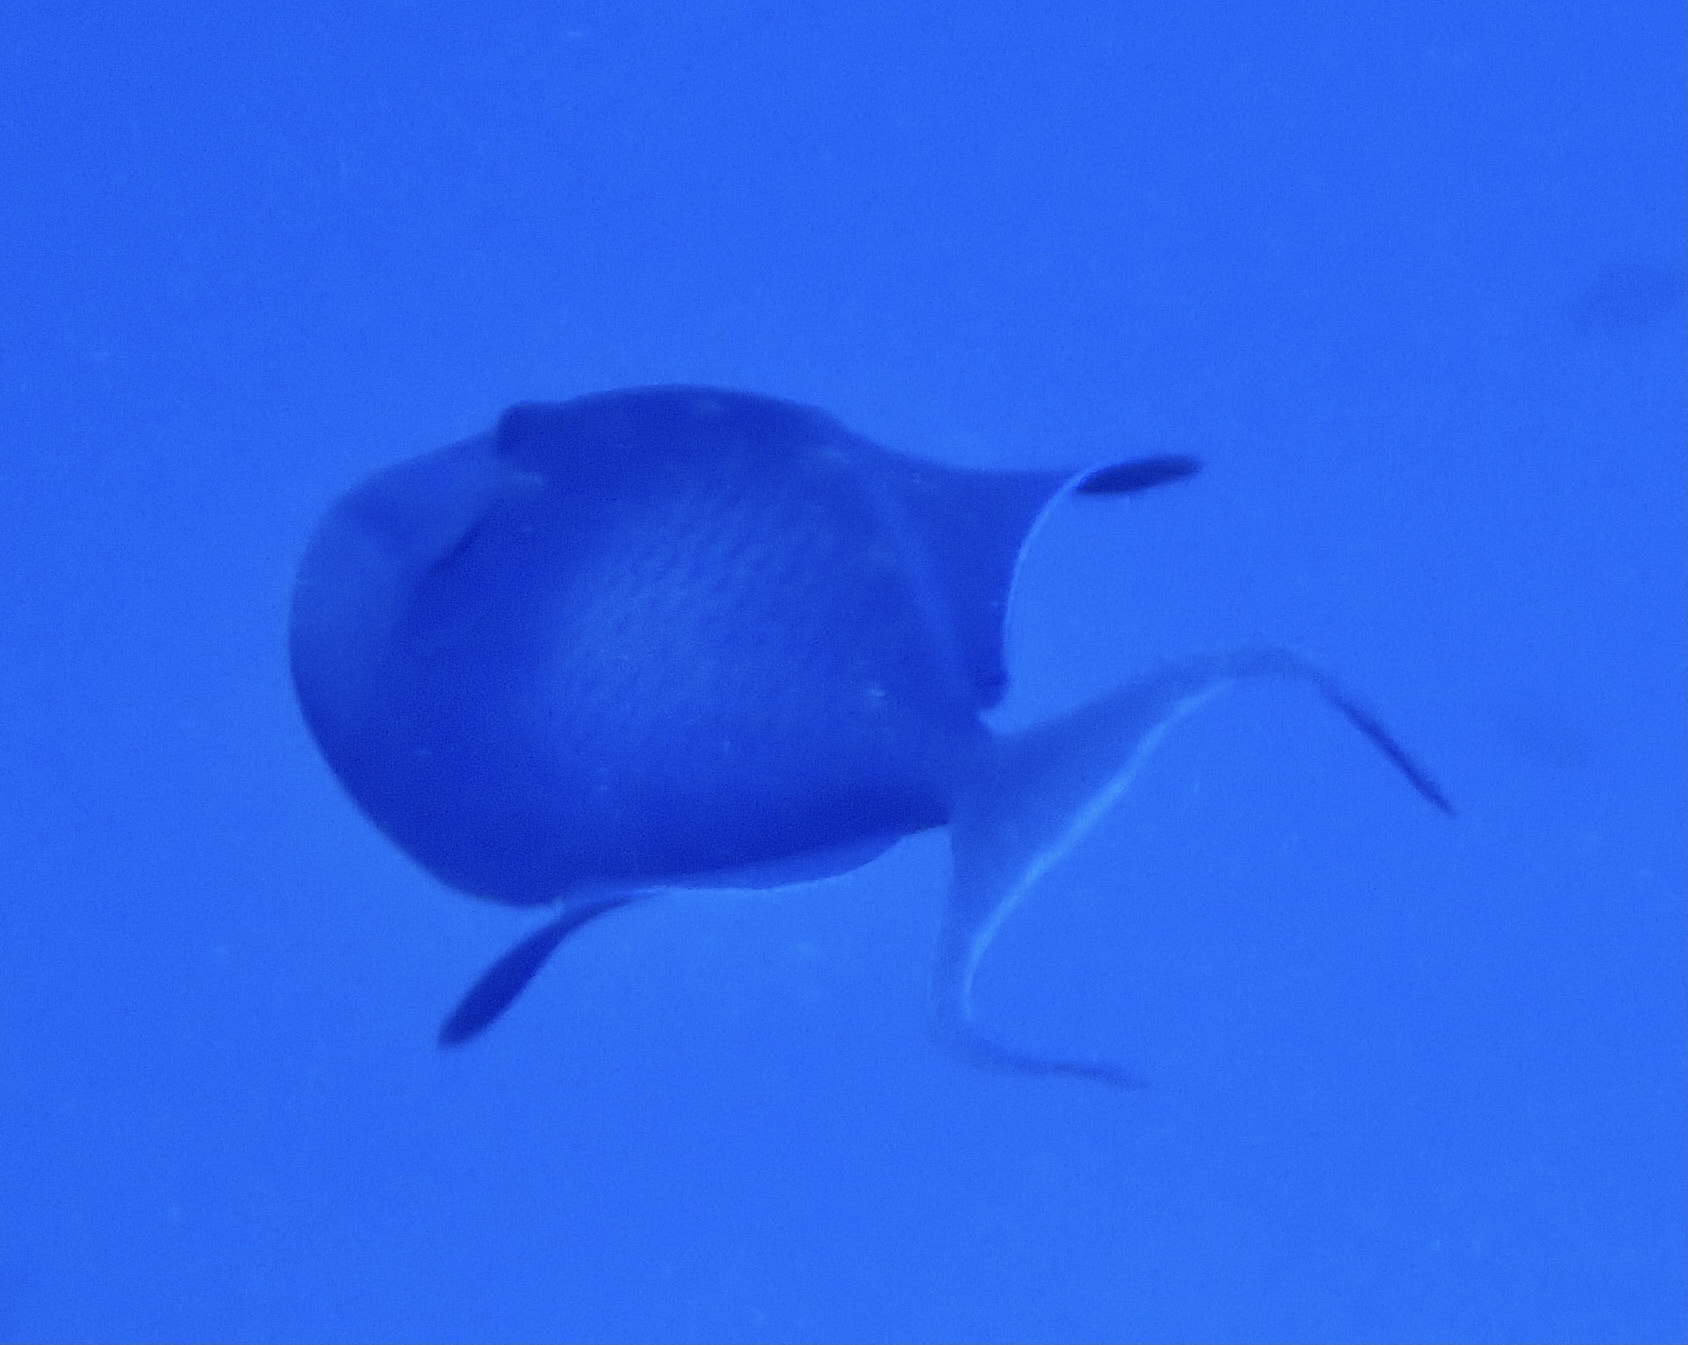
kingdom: Animalia
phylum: Chordata
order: Tetraodontiformes
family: Balistidae
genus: Odonus
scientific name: Odonus niger
